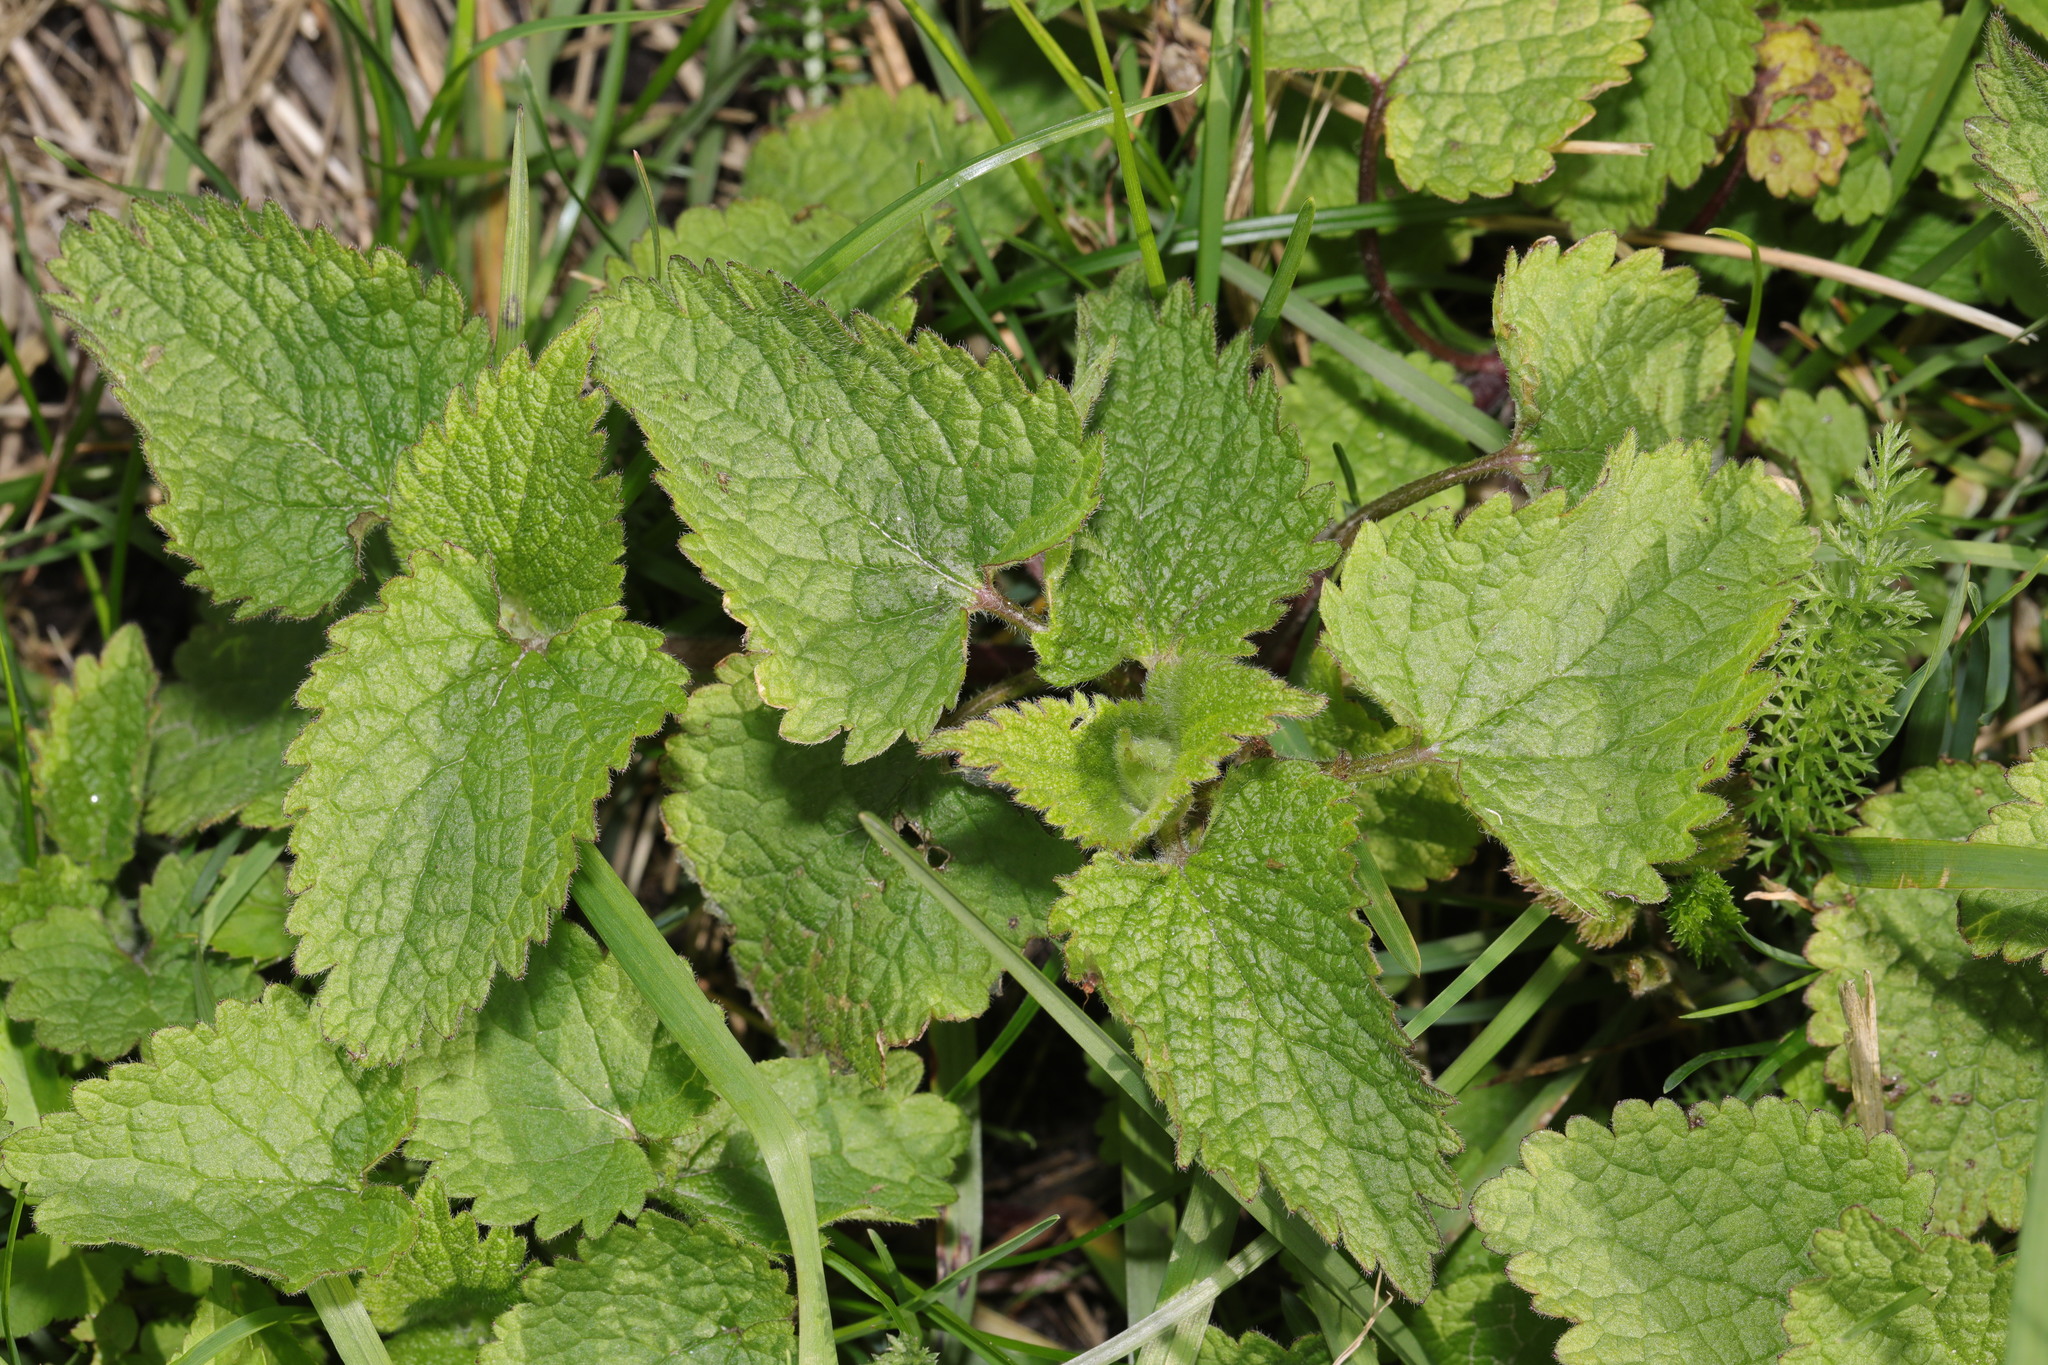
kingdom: Plantae
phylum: Tracheophyta
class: Magnoliopsida
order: Lamiales
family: Lamiaceae
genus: Lamium
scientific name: Lamium album
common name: White dead-nettle
